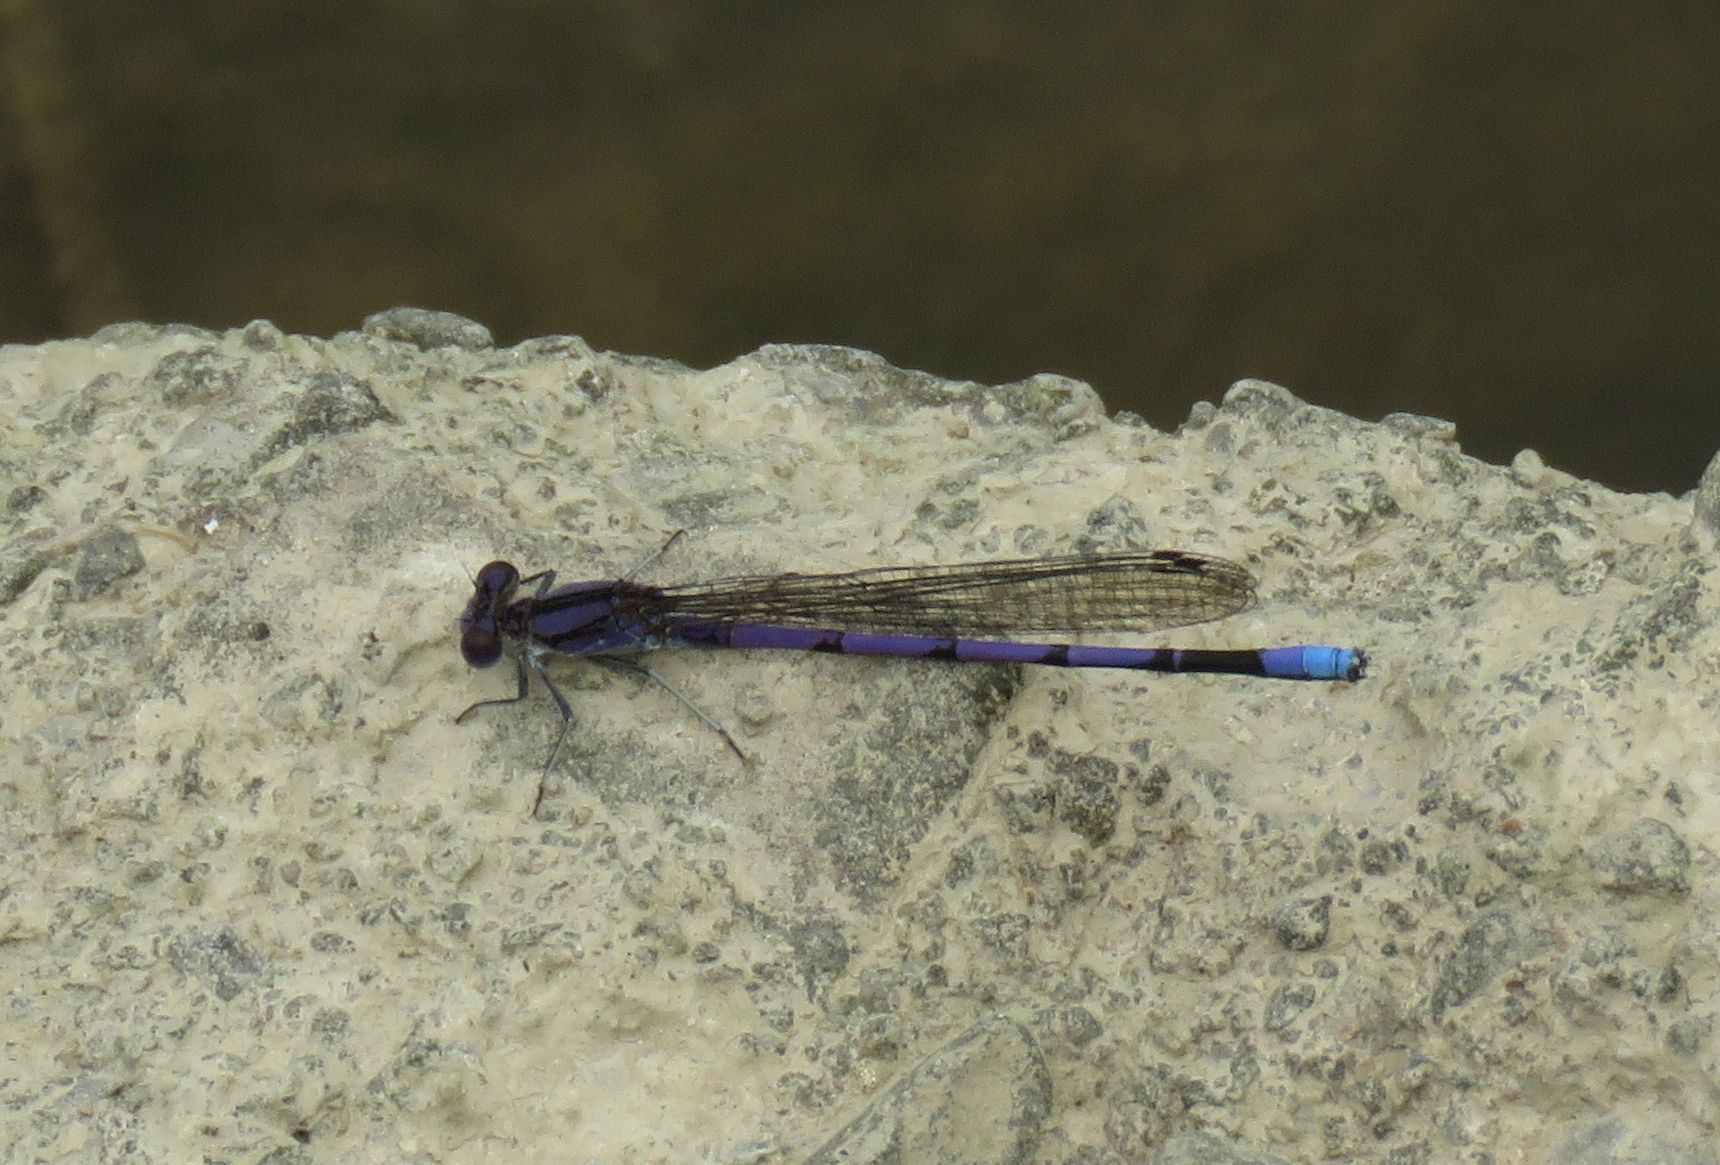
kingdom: Animalia
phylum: Arthropoda
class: Insecta
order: Odonata
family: Coenagrionidae
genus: Argia
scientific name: Argia fumipennis
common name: Variable dancer
